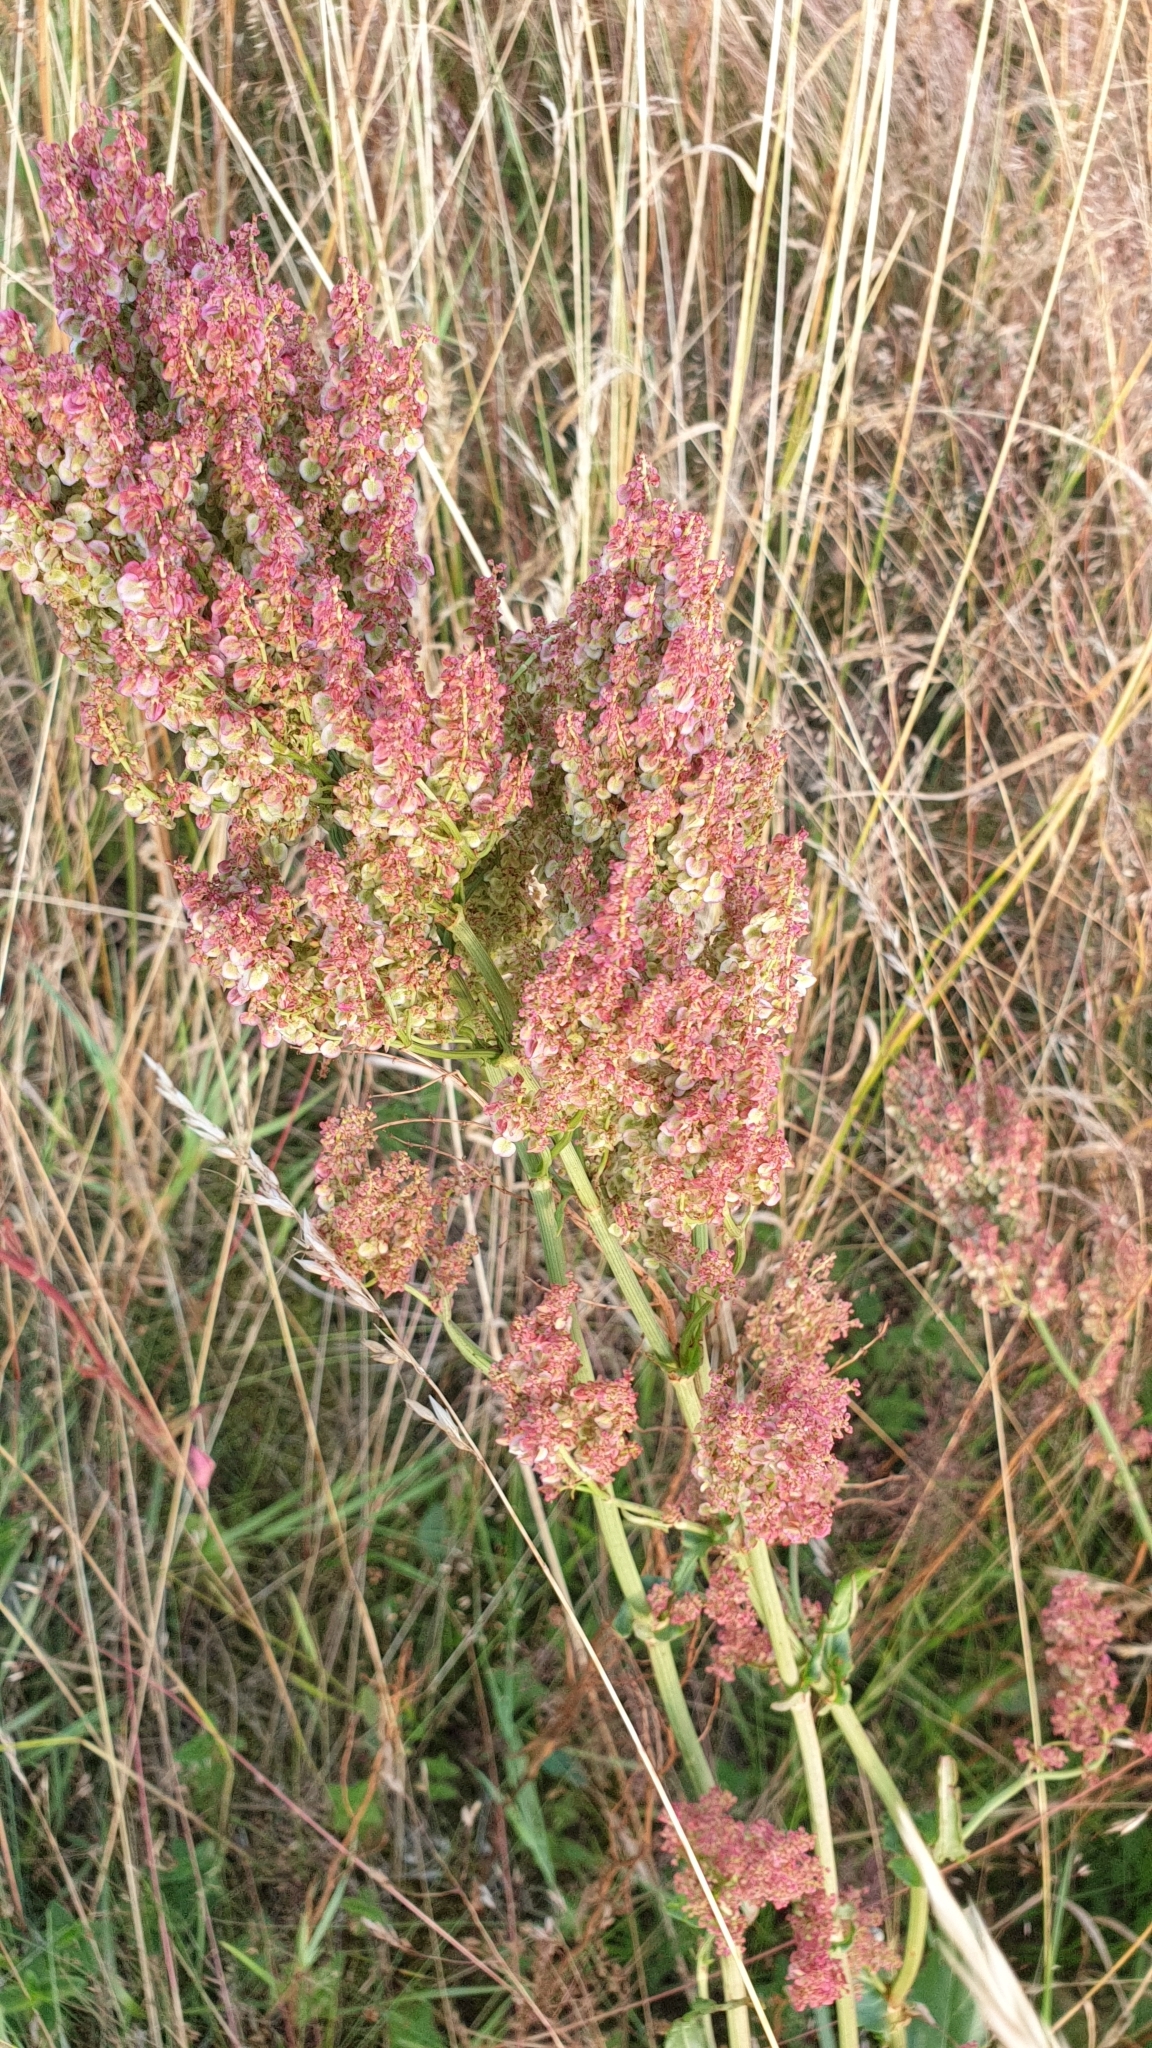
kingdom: Plantae
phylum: Tracheophyta
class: Magnoliopsida
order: Caryophyllales
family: Polygonaceae
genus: Rumex
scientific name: Rumex acetosa
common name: Garden sorrel
